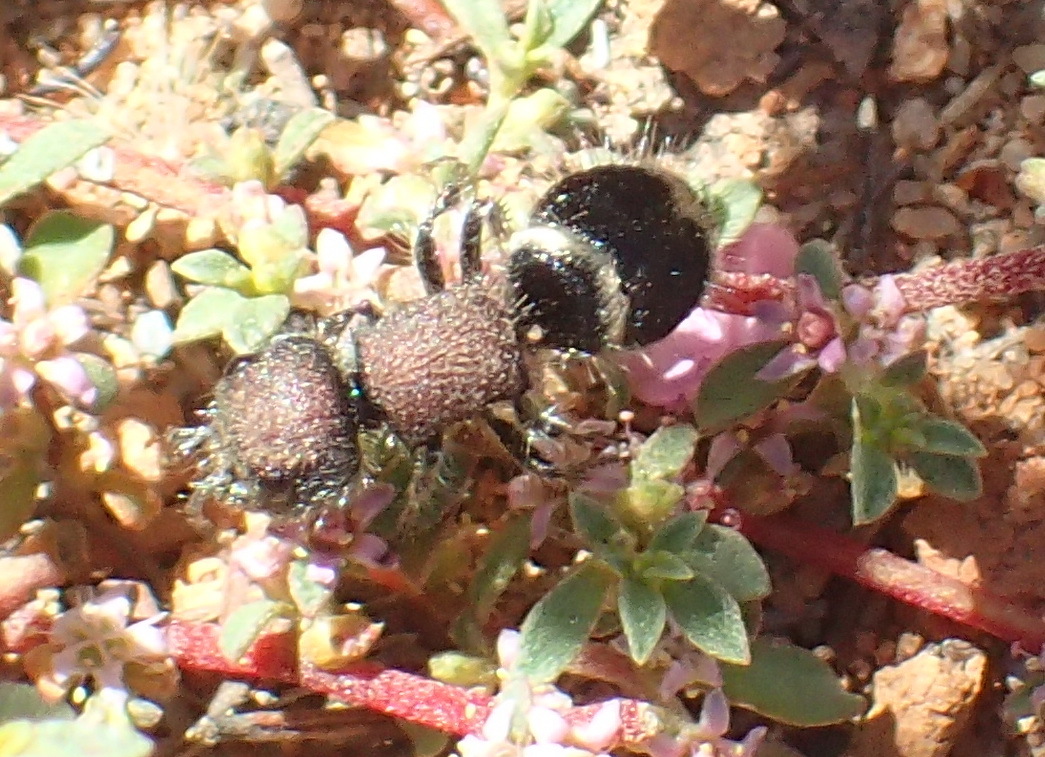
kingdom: Animalia
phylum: Arthropoda
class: Insecta
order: Hymenoptera
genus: Hadrotilla
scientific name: Hadrotilla
